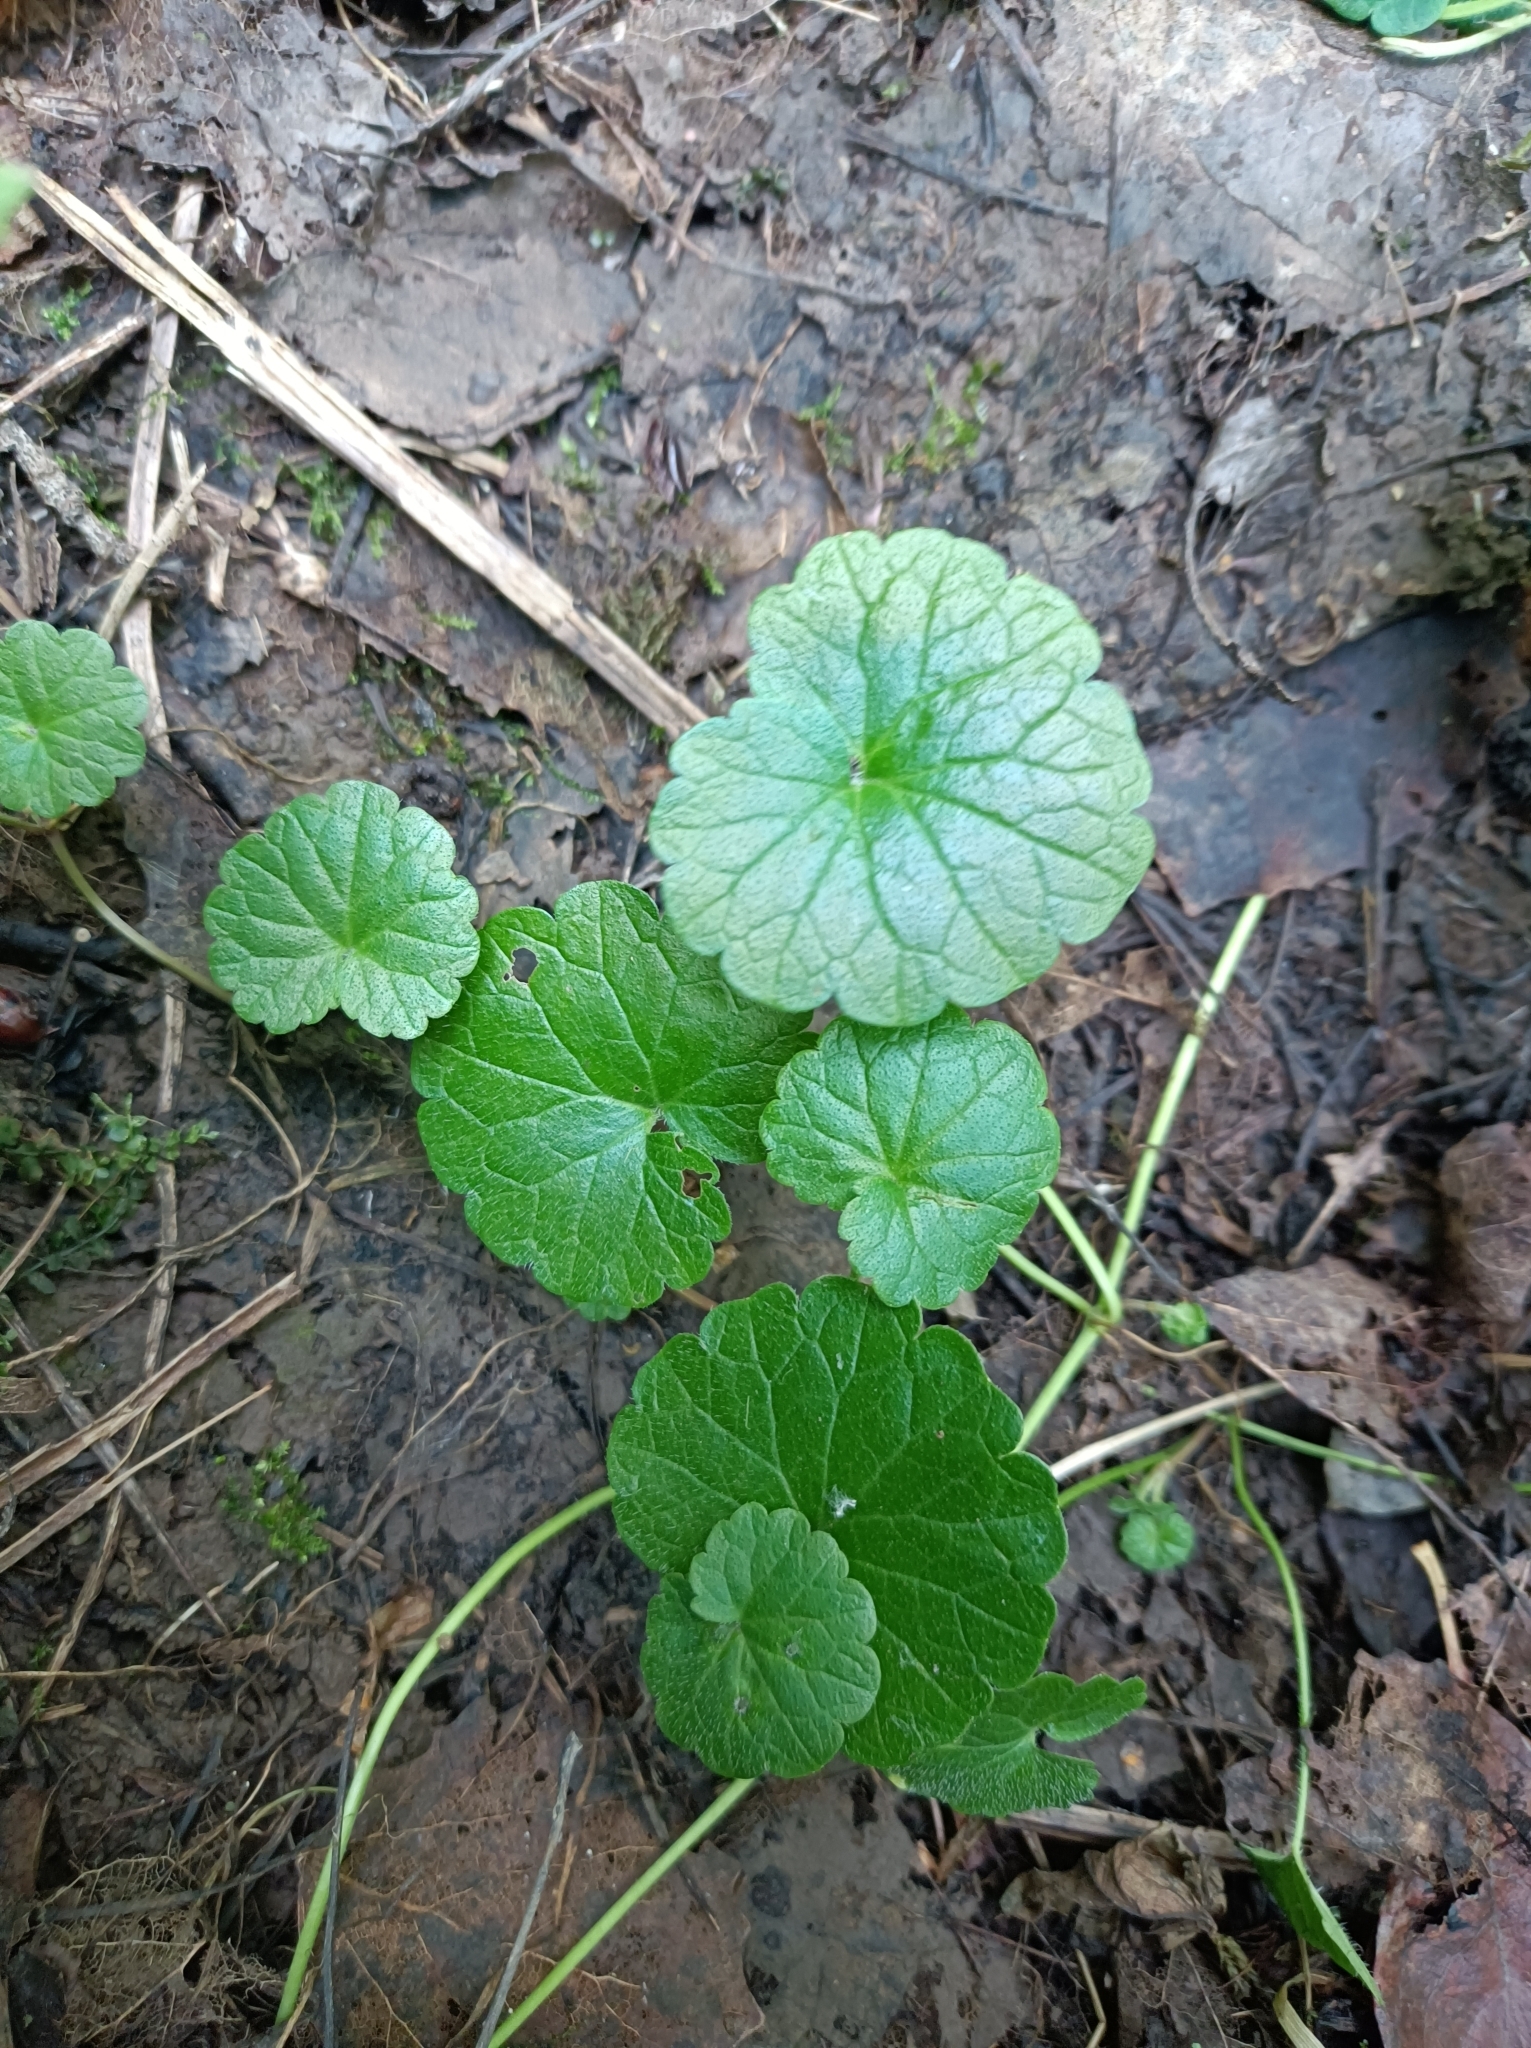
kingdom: Plantae
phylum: Tracheophyta
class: Magnoliopsida
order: Lamiales
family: Lamiaceae
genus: Glechoma
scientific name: Glechoma hederacea
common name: Ground ivy
